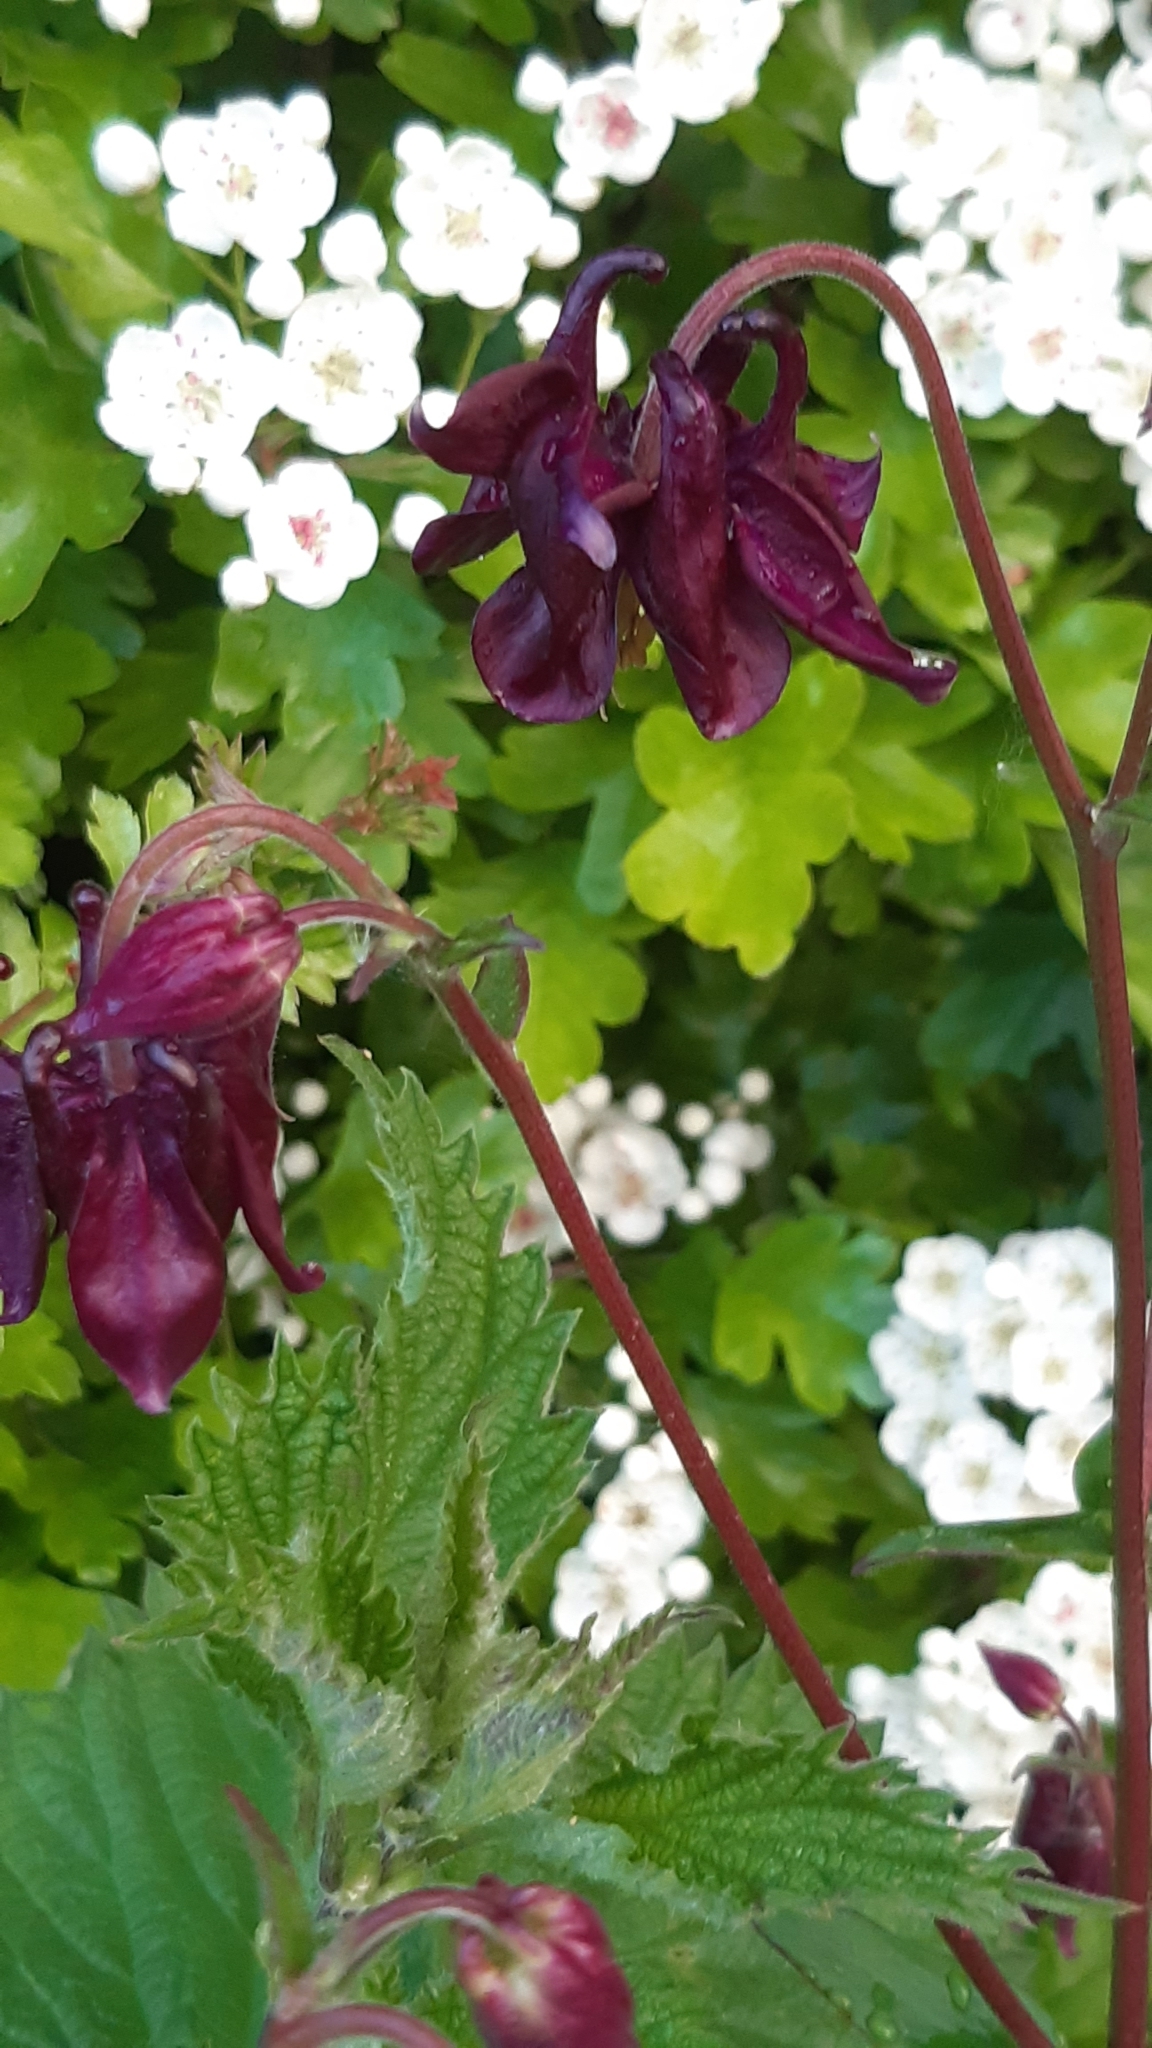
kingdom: Plantae
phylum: Tracheophyta
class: Magnoliopsida
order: Ranunculales
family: Ranunculaceae
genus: Aquilegia
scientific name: Aquilegia vulgaris
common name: Columbine
